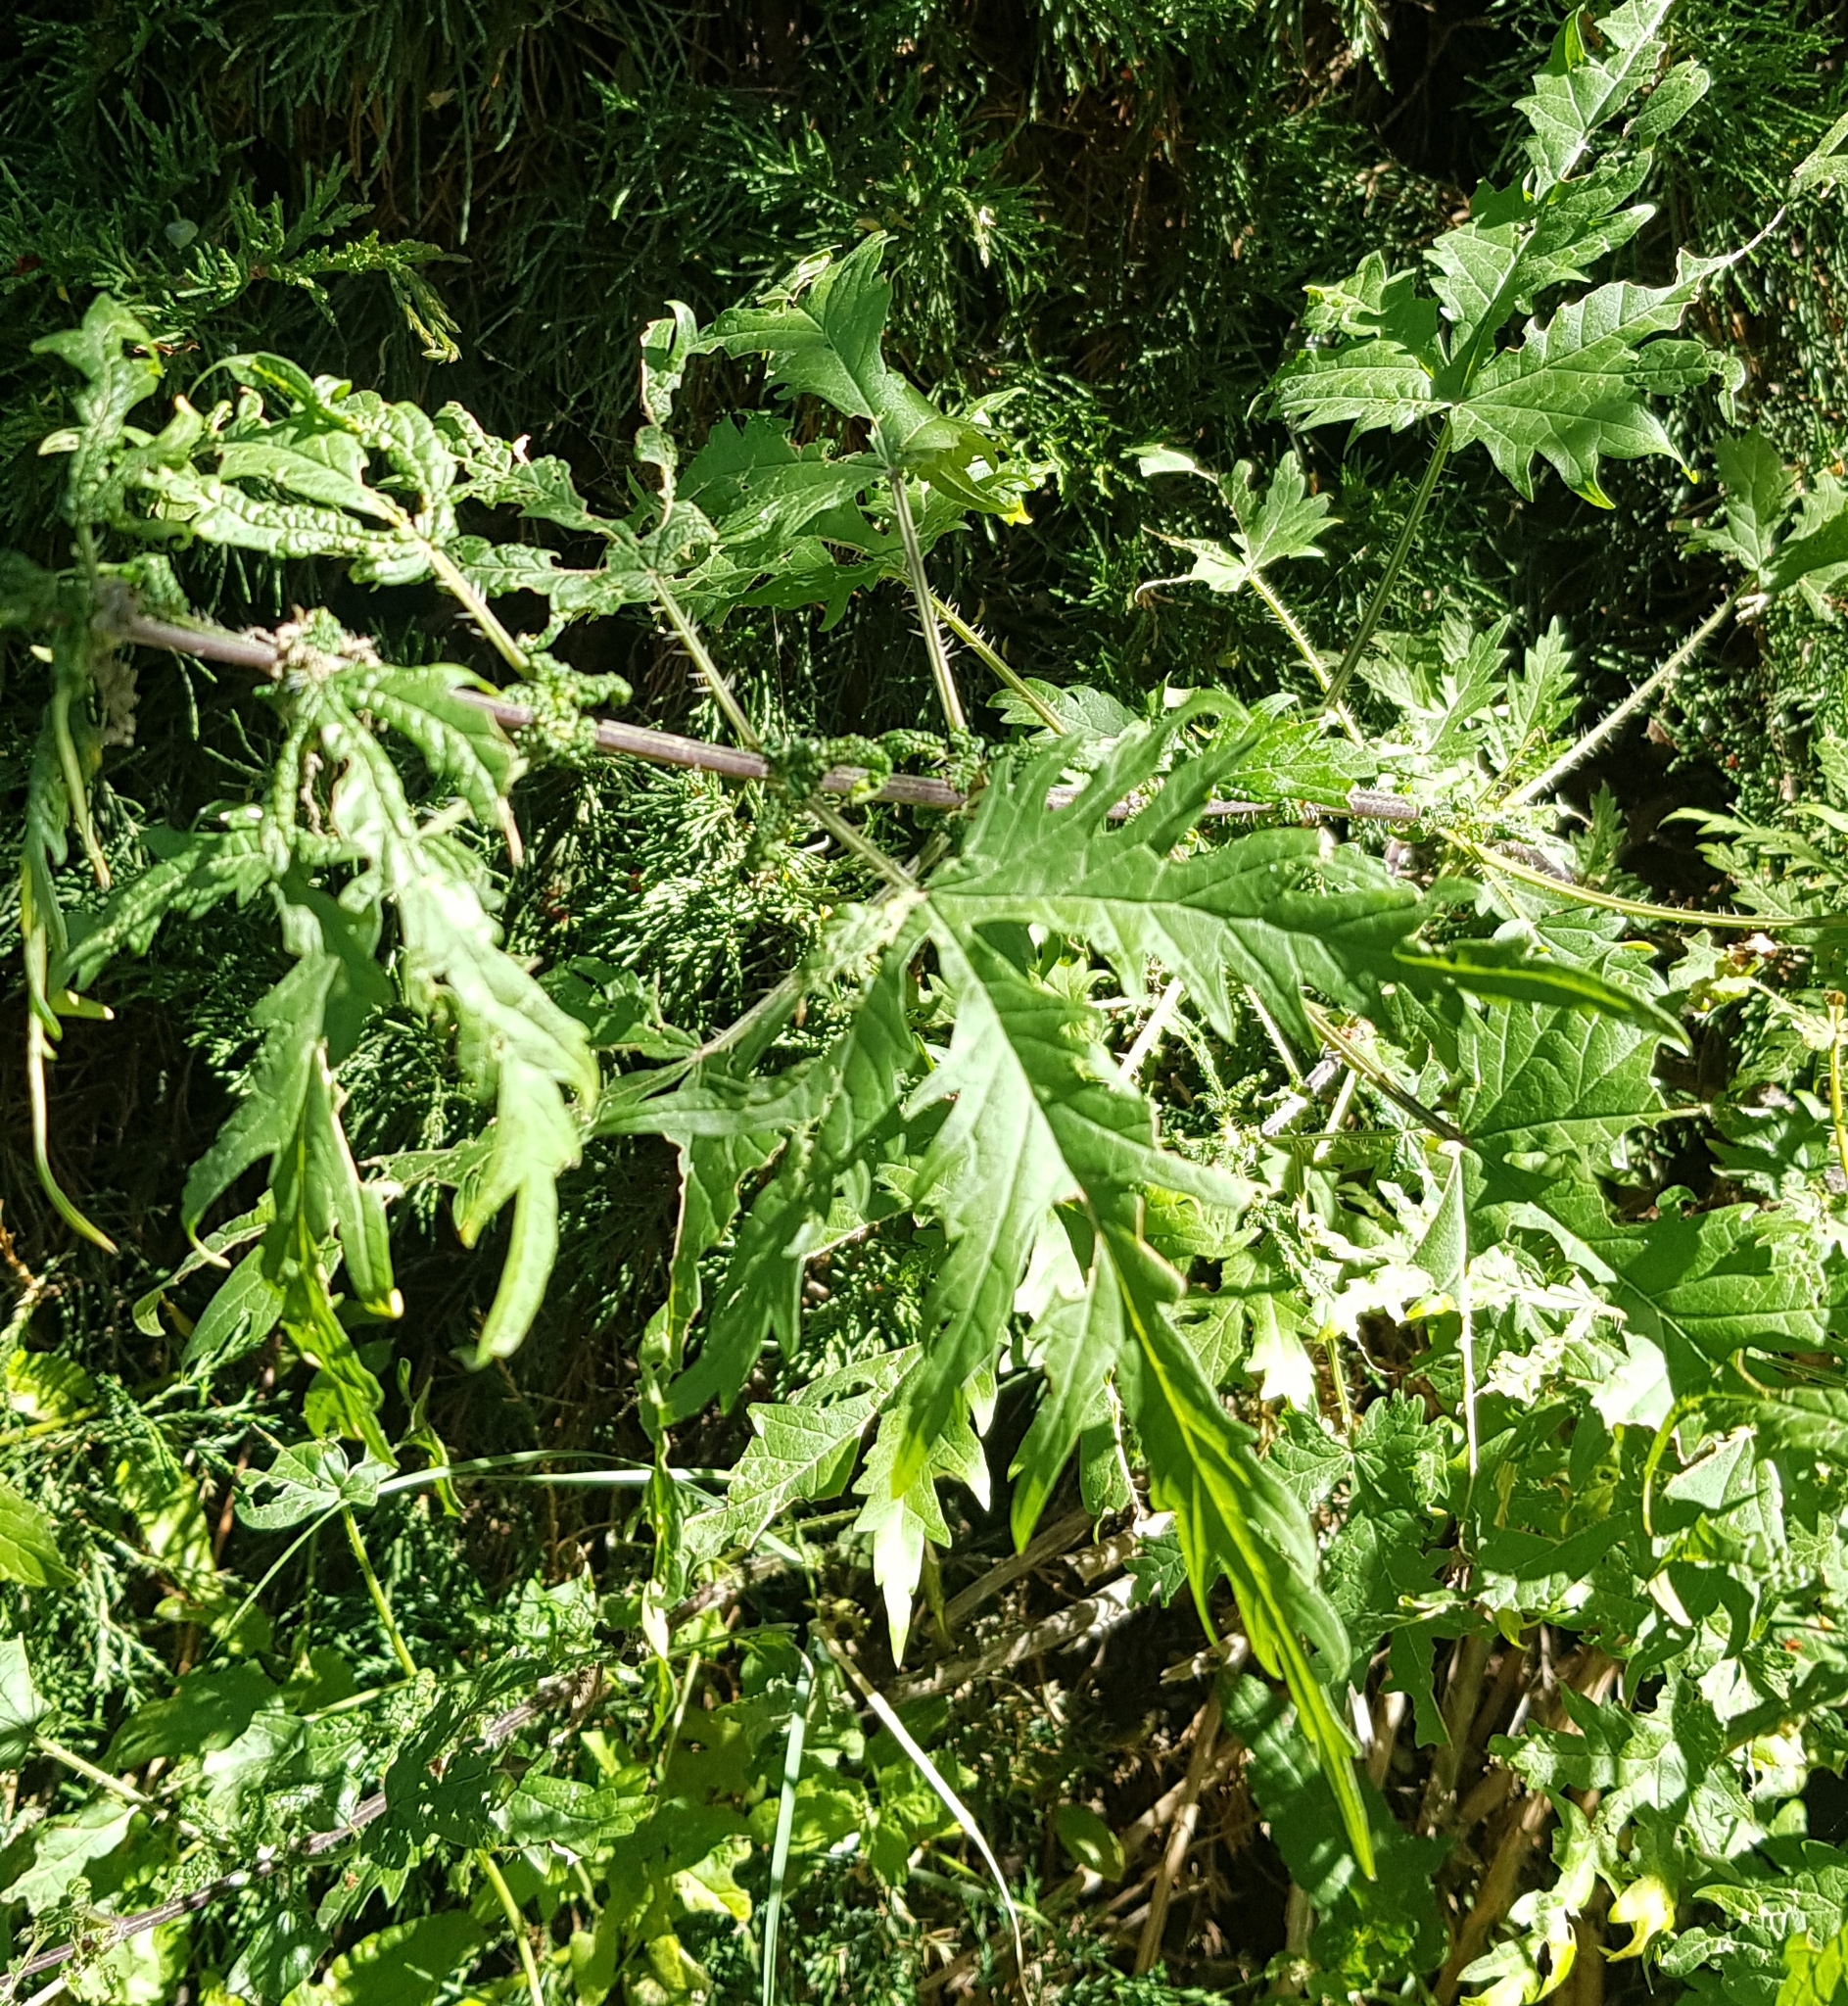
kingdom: Plantae
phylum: Tracheophyta
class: Magnoliopsida
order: Rosales
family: Urticaceae
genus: Urtica
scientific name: Urtica cannabina
